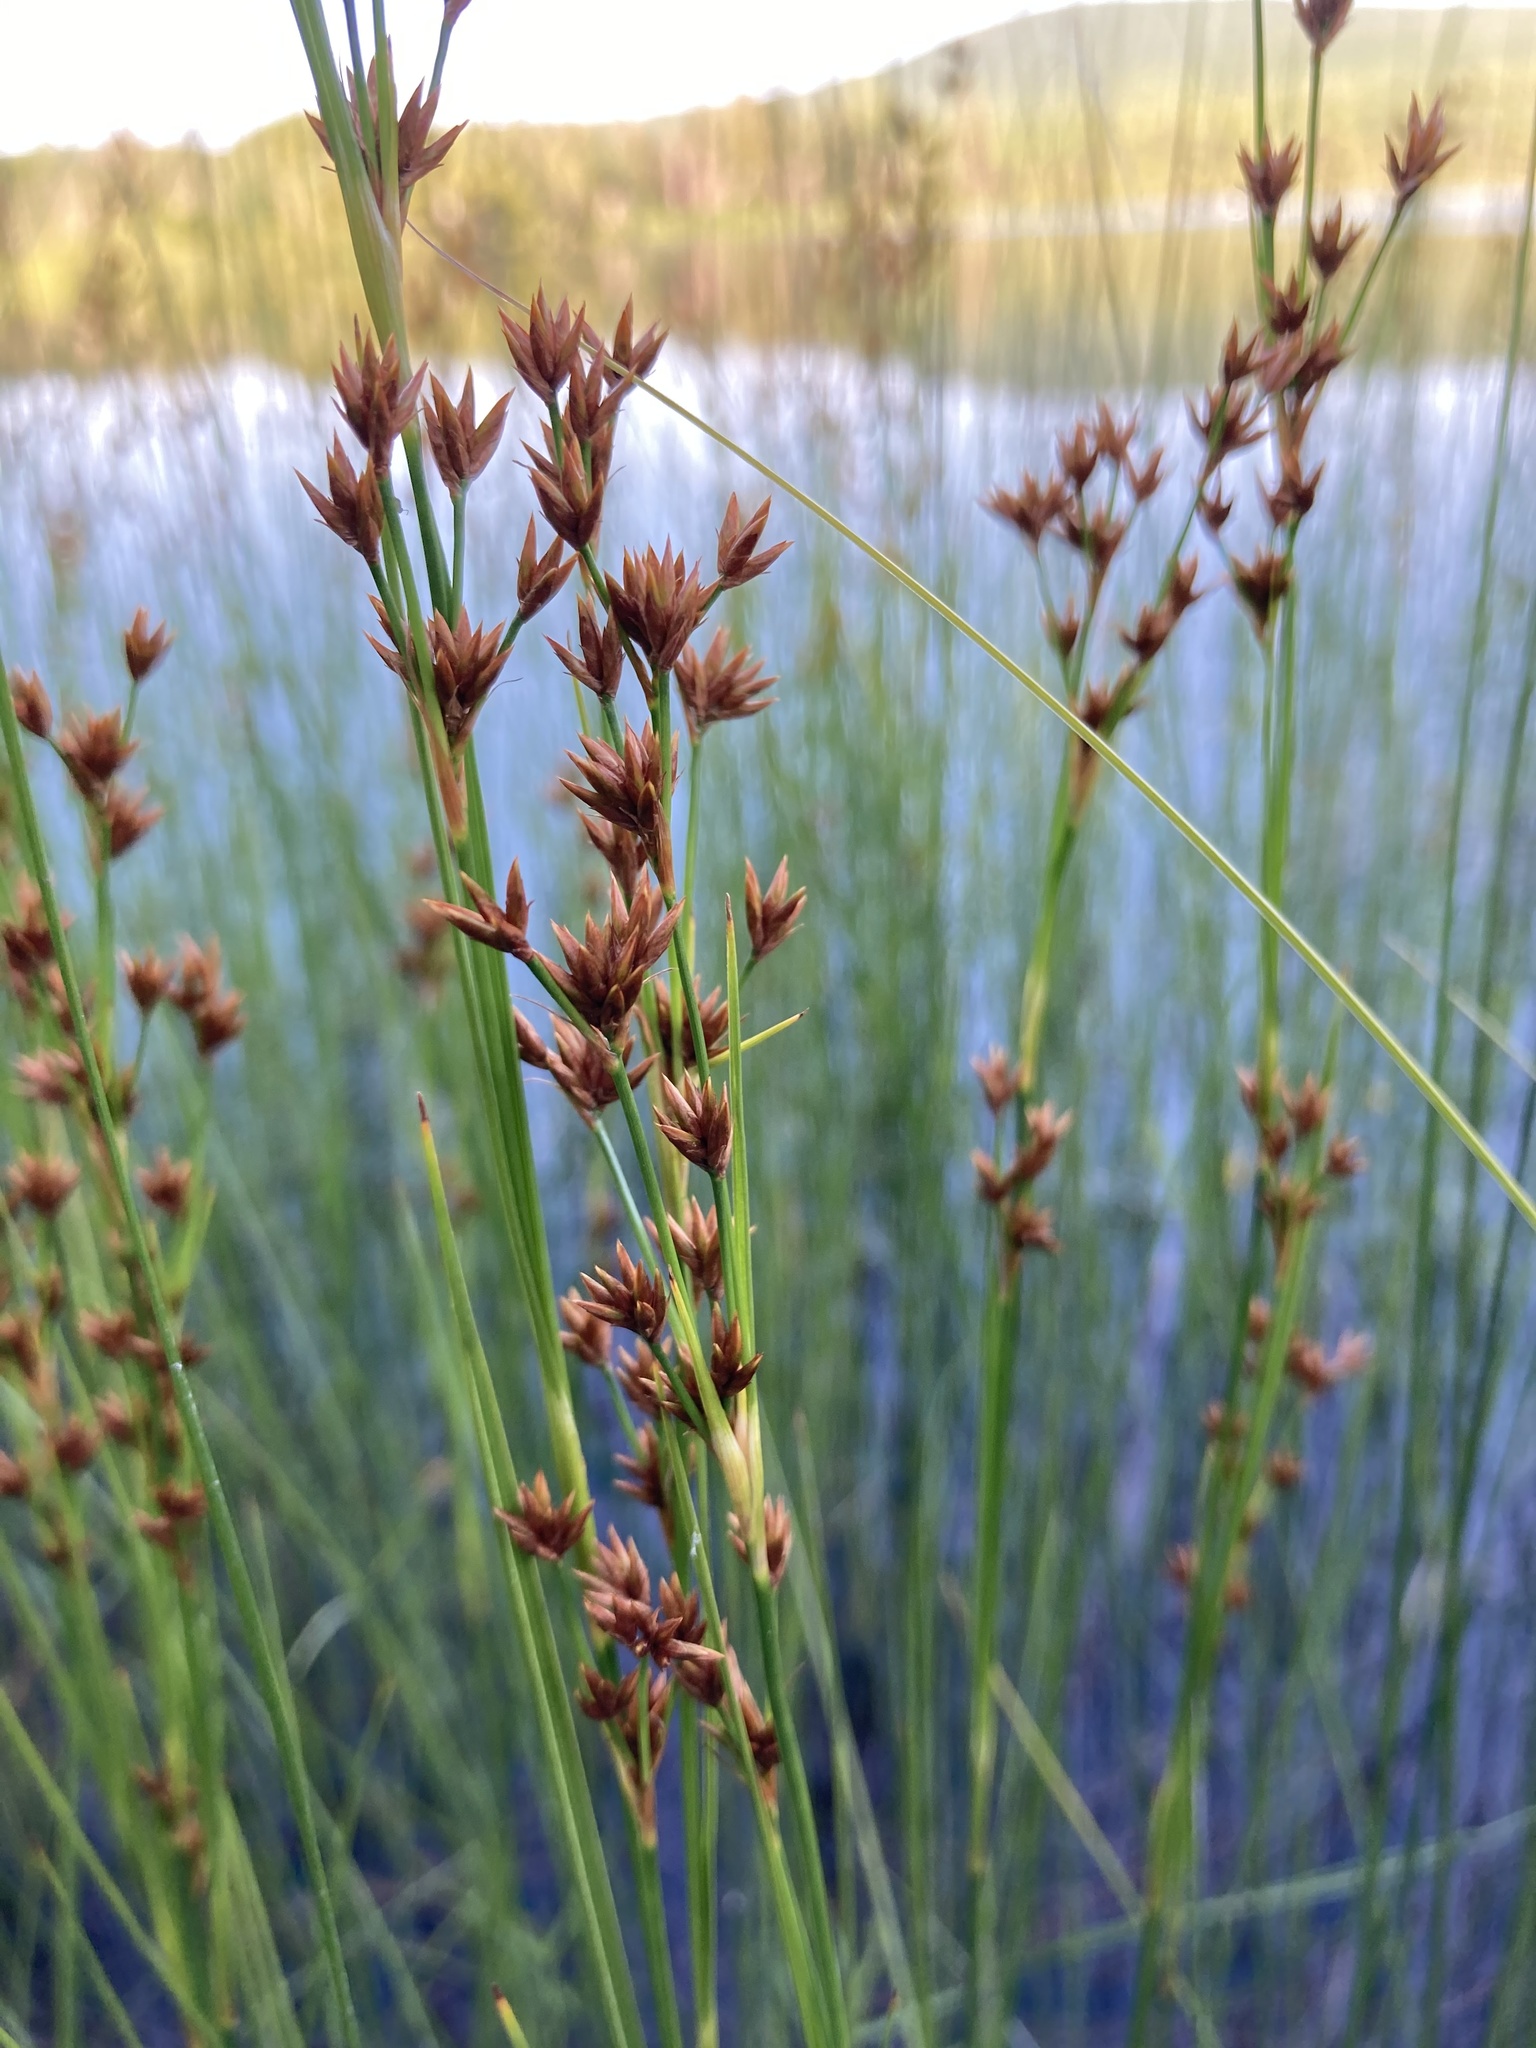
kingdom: Plantae
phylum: Tracheophyta
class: Liliopsida
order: Poales
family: Cyperaceae
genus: Cladium
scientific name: Cladium mariscoides
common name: Smooth sawgrass
